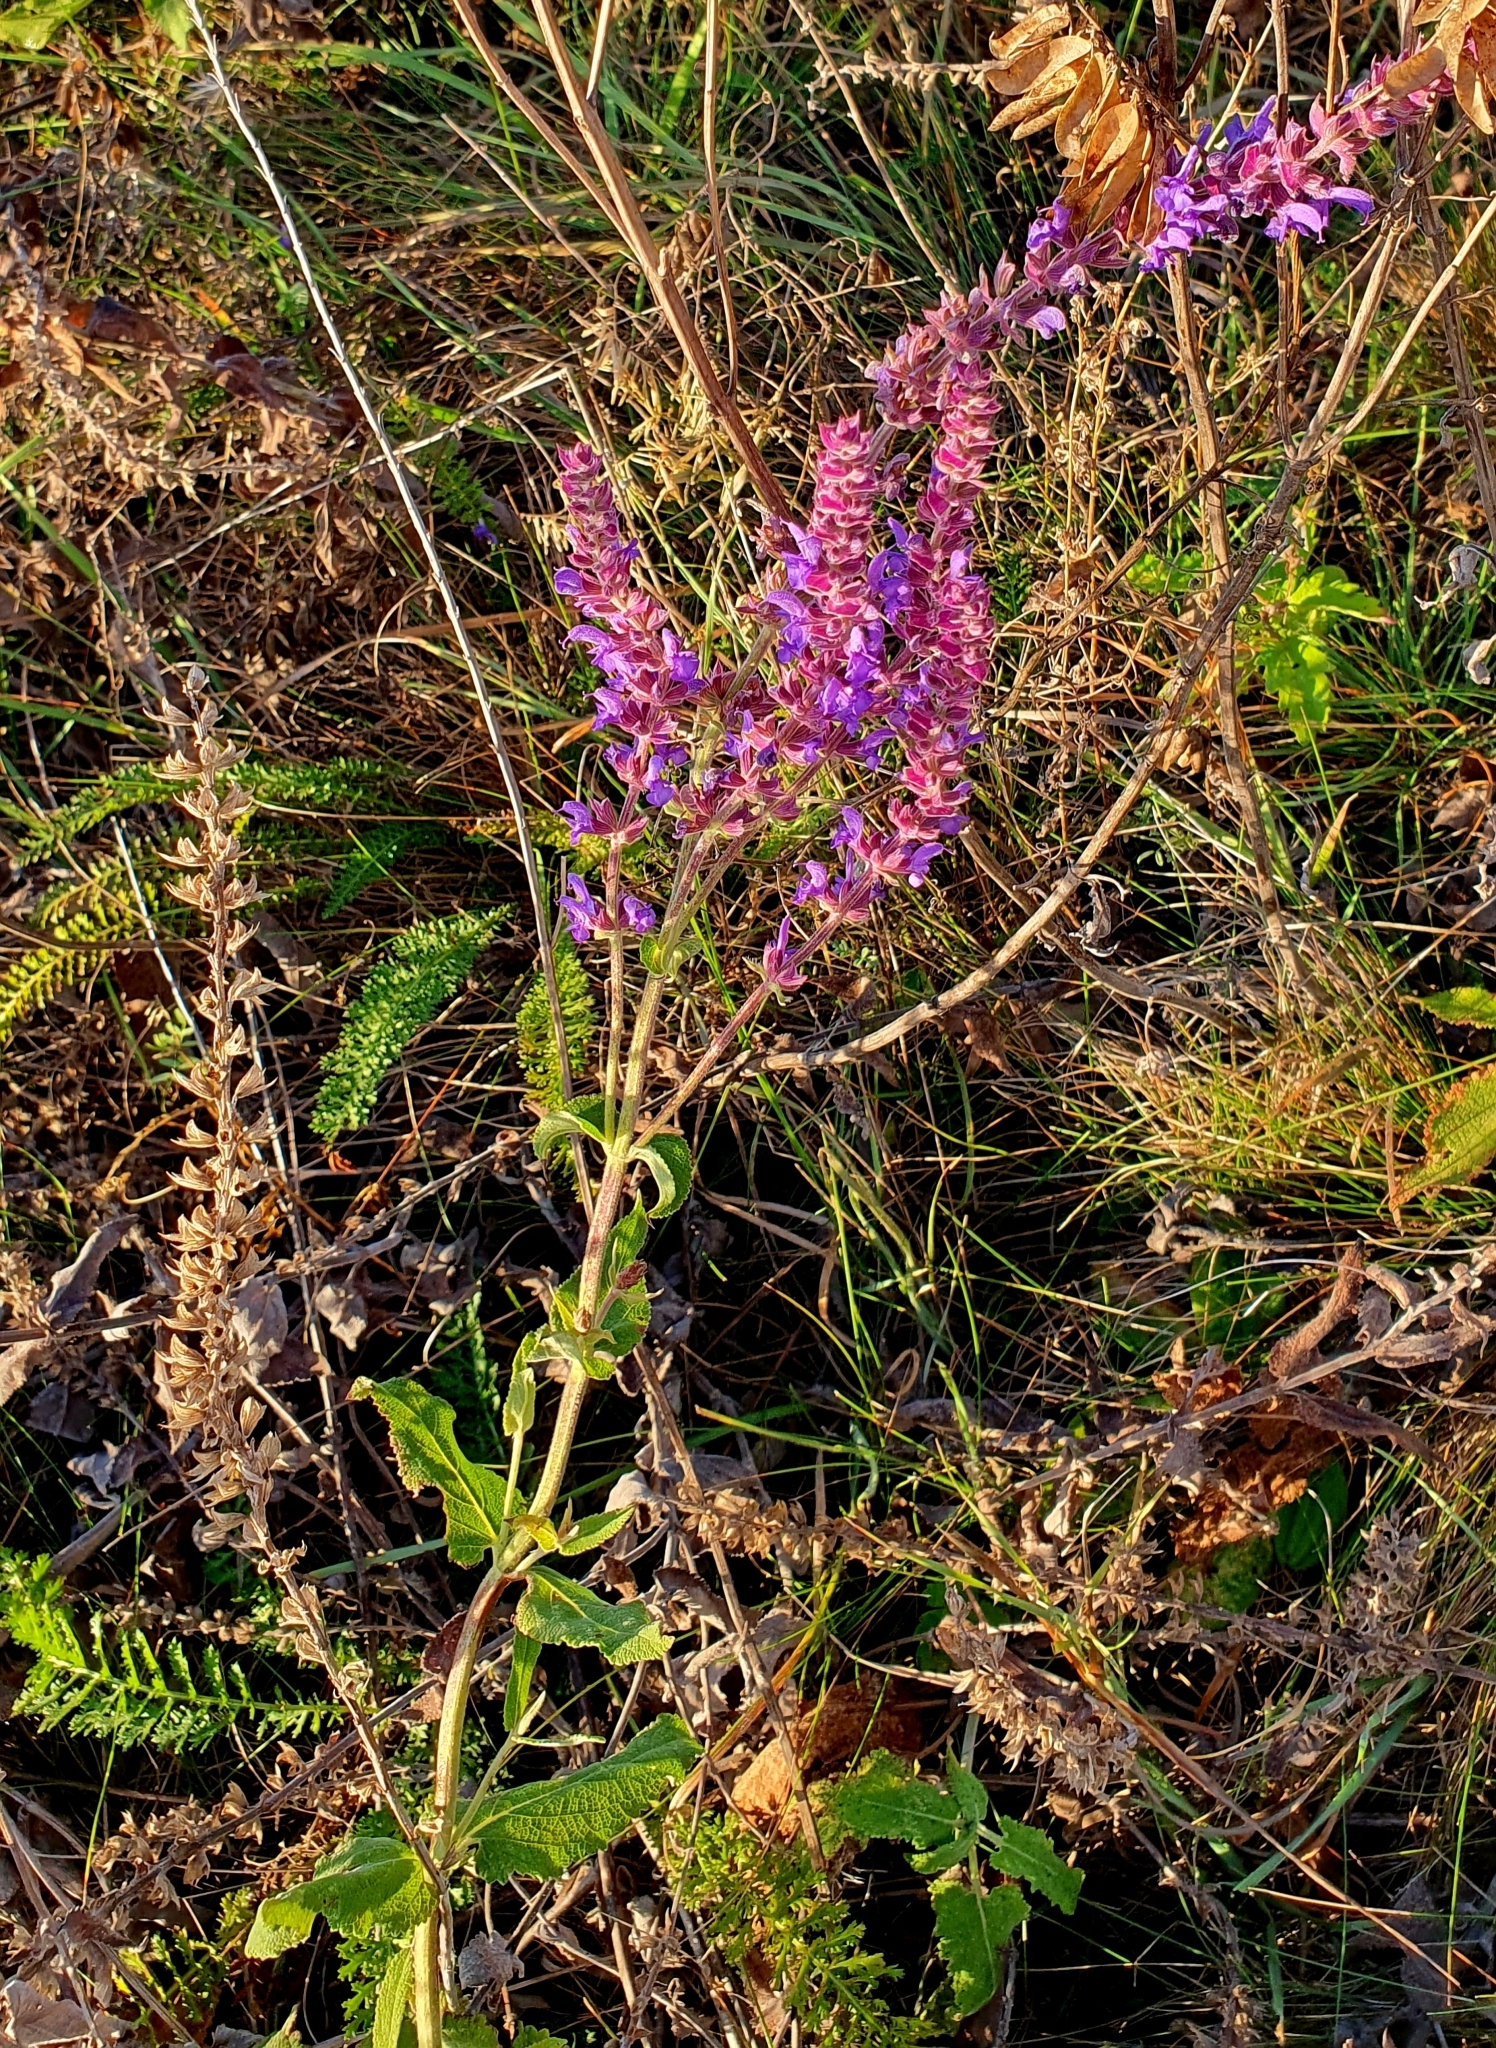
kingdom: Plantae
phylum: Tracheophyta
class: Magnoliopsida
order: Lamiales
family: Lamiaceae
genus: Salvia
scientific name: Salvia nemorosa
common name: Balkan clary
